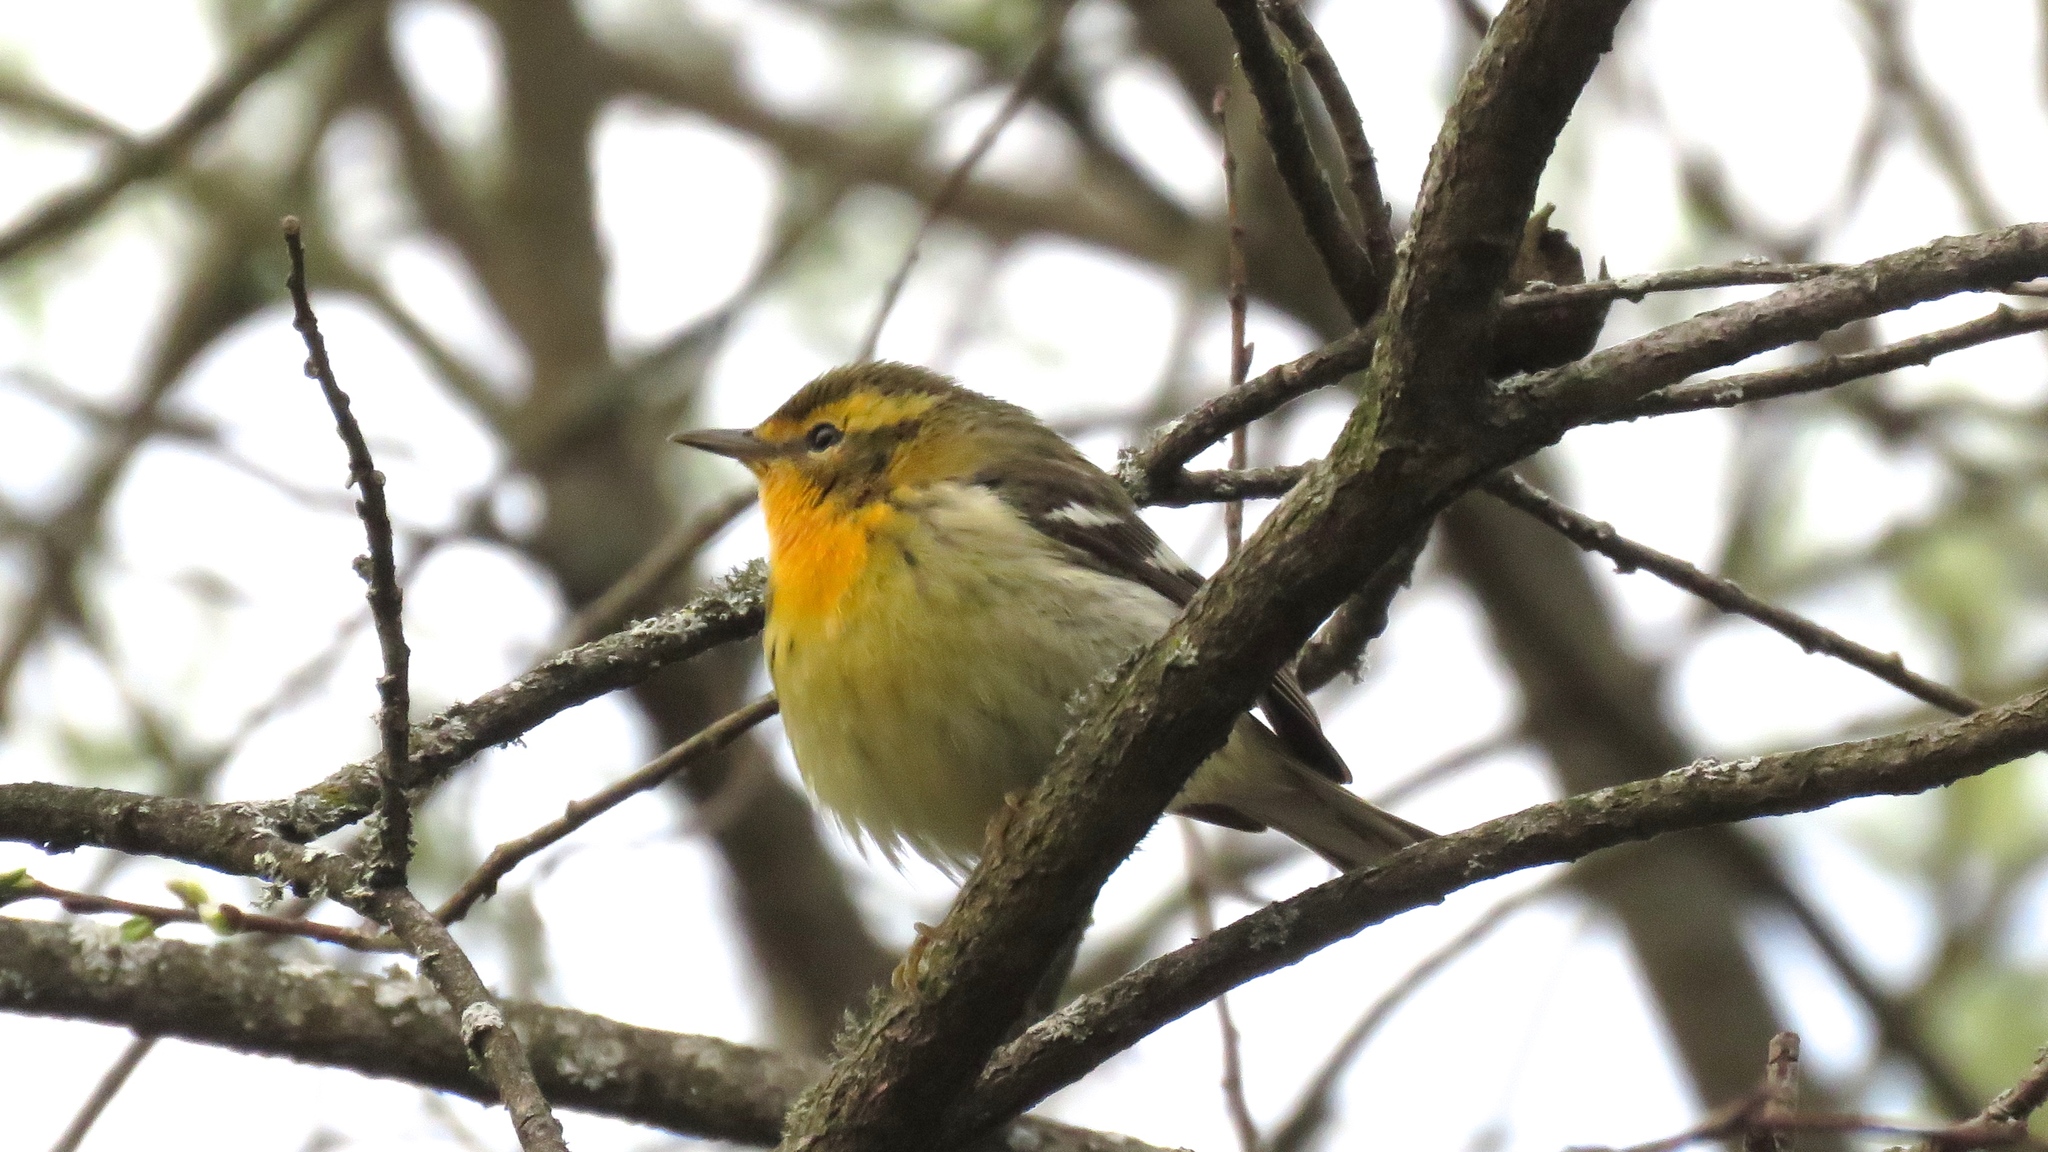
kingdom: Animalia
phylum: Chordata
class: Aves
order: Passeriformes
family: Parulidae
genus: Setophaga
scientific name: Setophaga fusca
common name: Blackburnian warbler
